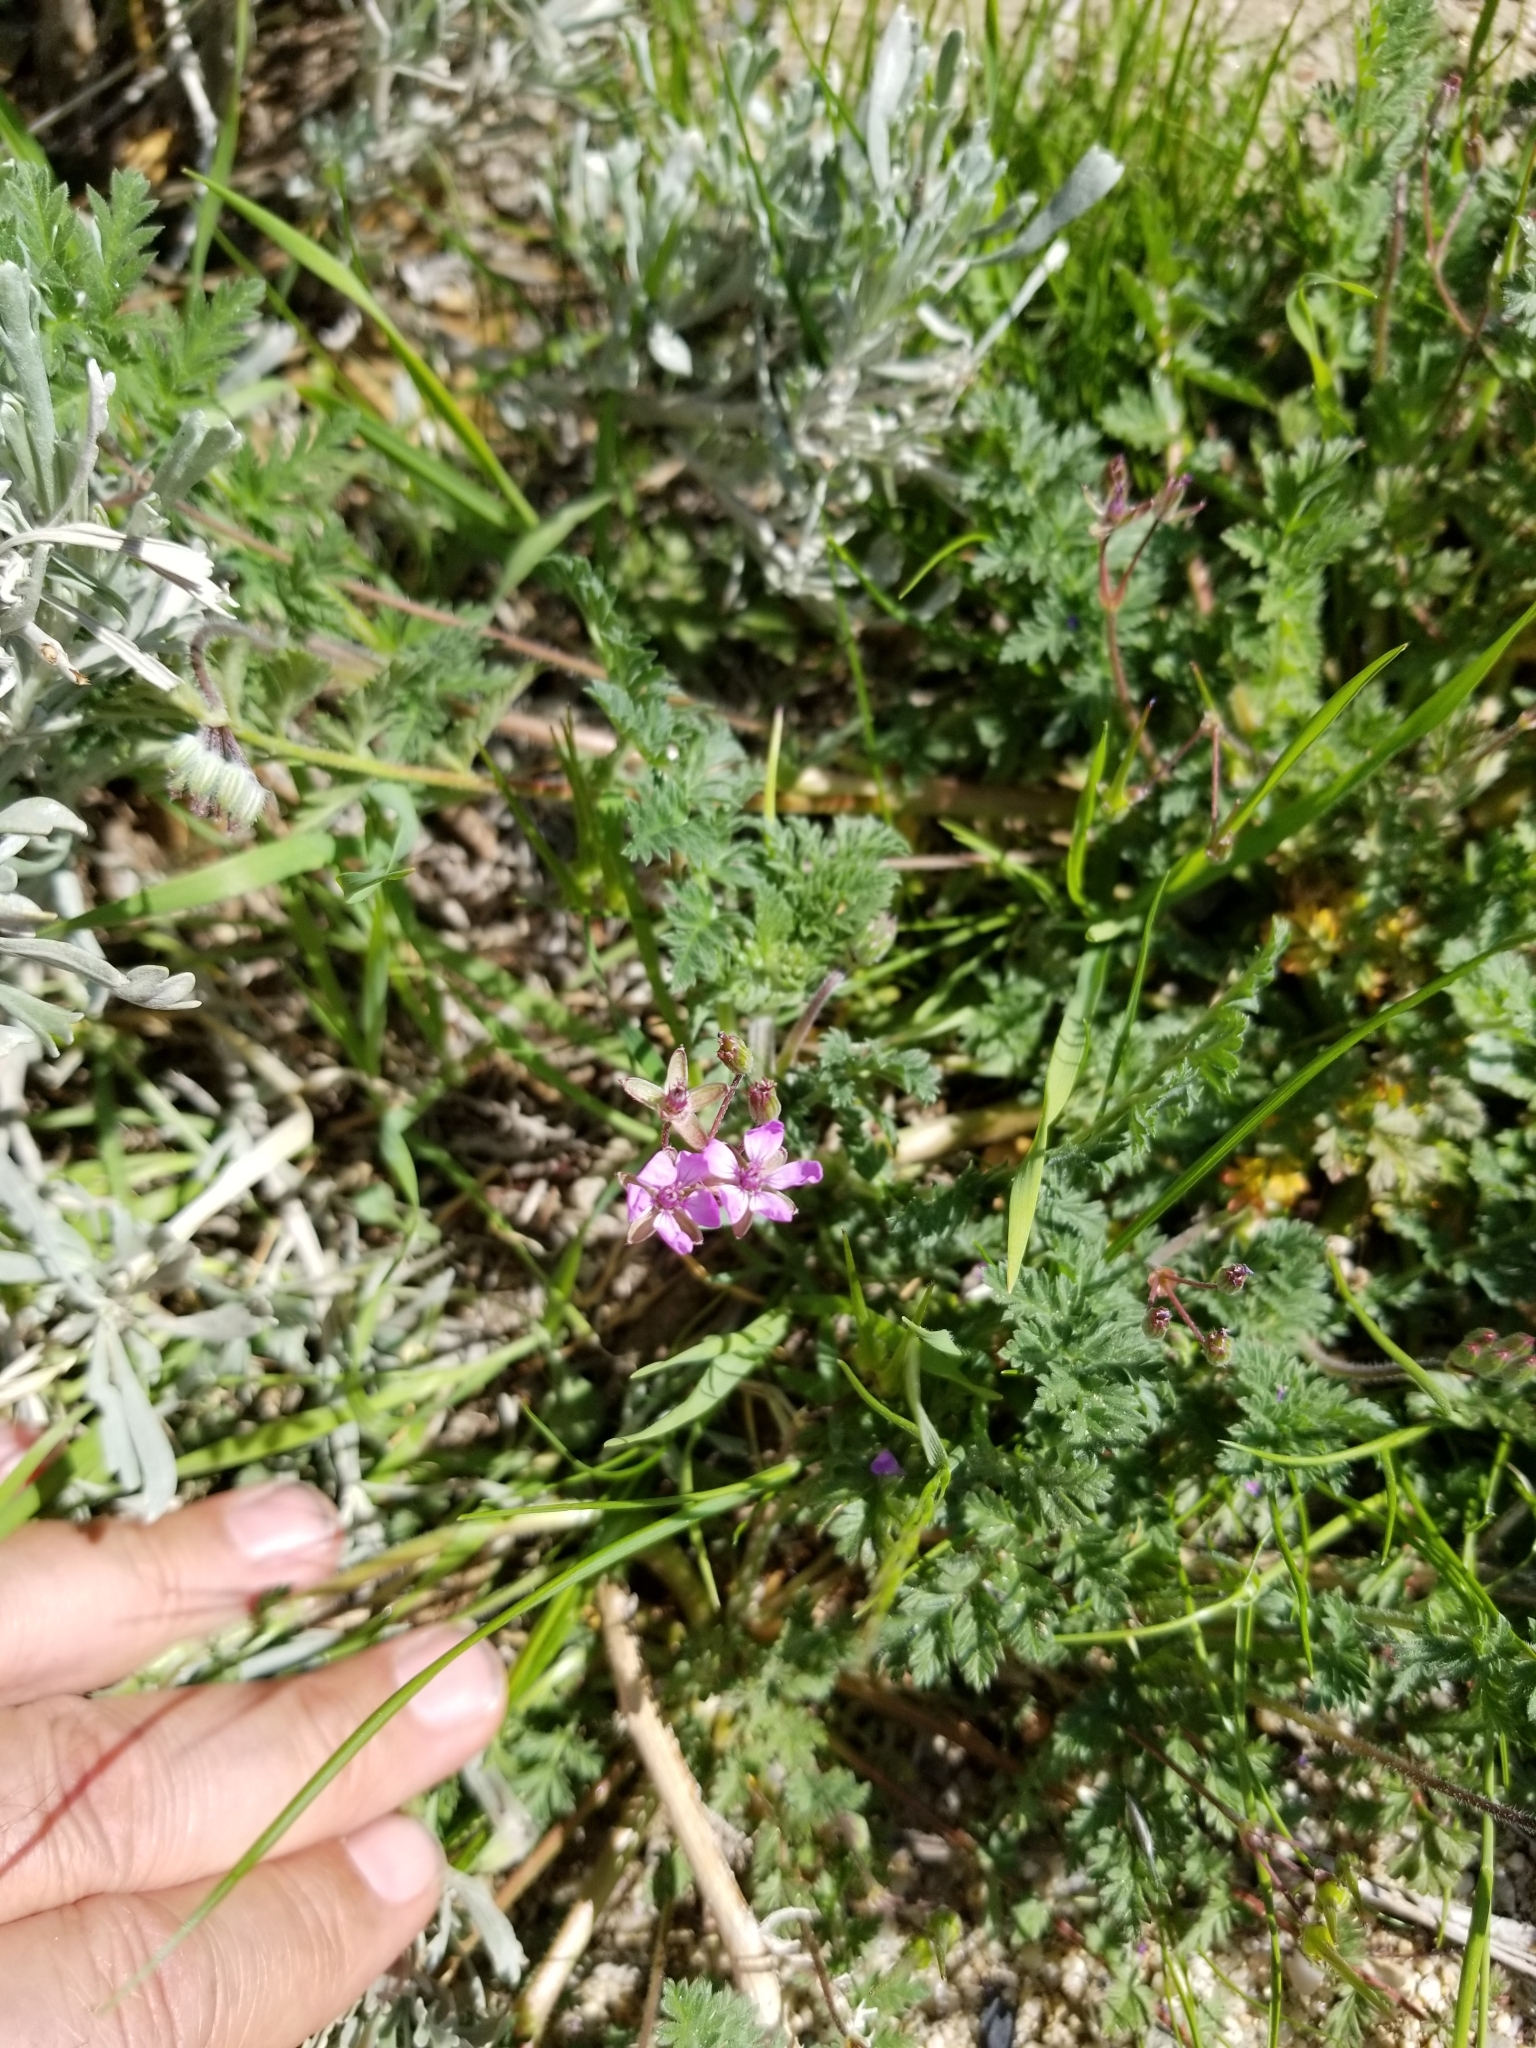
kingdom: Plantae
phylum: Tracheophyta
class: Magnoliopsida
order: Geraniales
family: Geraniaceae
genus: Erodium
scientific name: Erodium cicutarium
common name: Common stork's-bill
